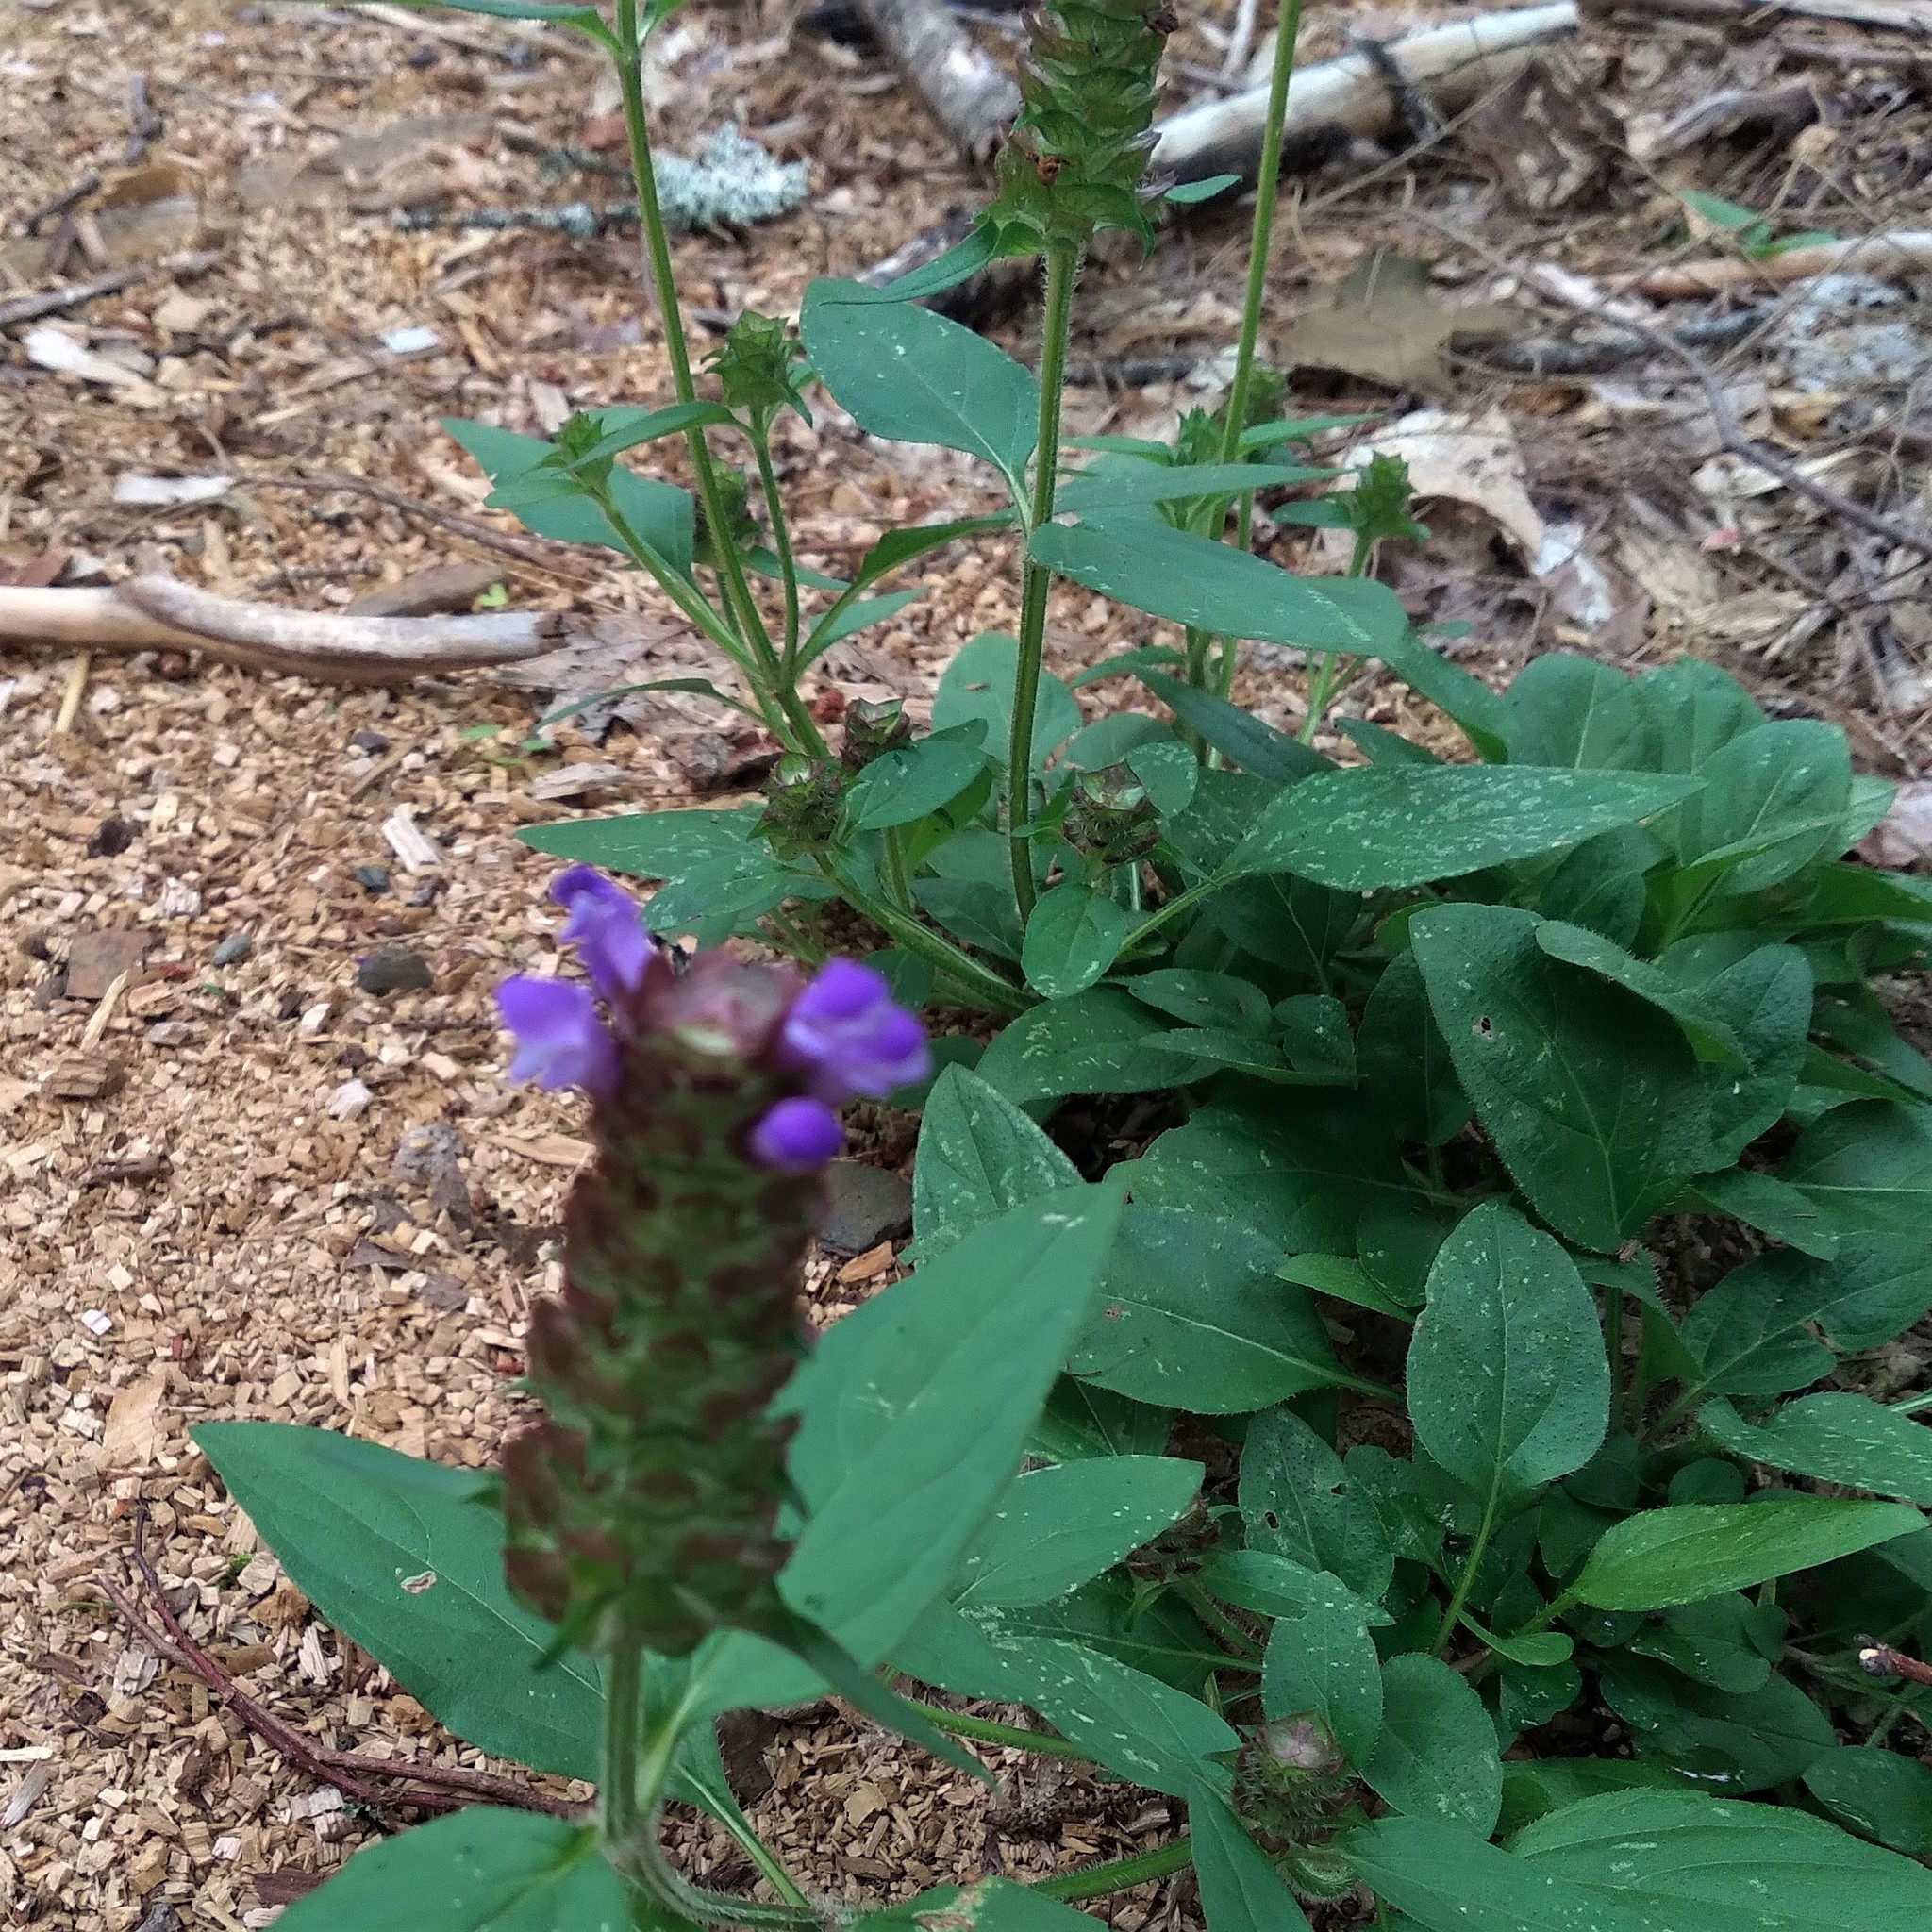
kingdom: Plantae
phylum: Tracheophyta
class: Magnoliopsida
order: Lamiales
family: Lamiaceae
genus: Prunella
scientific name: Prunella vulgaris
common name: Heal-all
